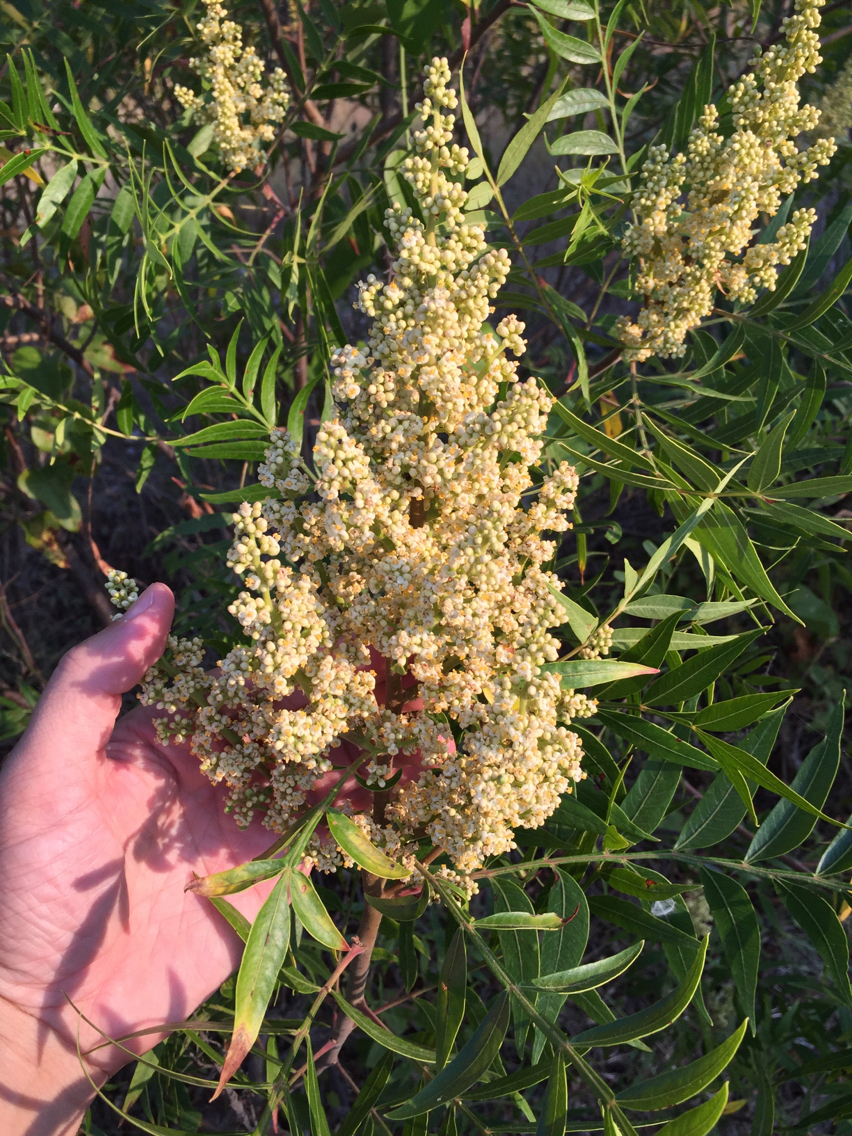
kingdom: Plantae
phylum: Tracheophyta
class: Magnoliopsida
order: Sapindales
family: Anacardiaceae
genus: Rhus
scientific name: Rhus lanceolata
